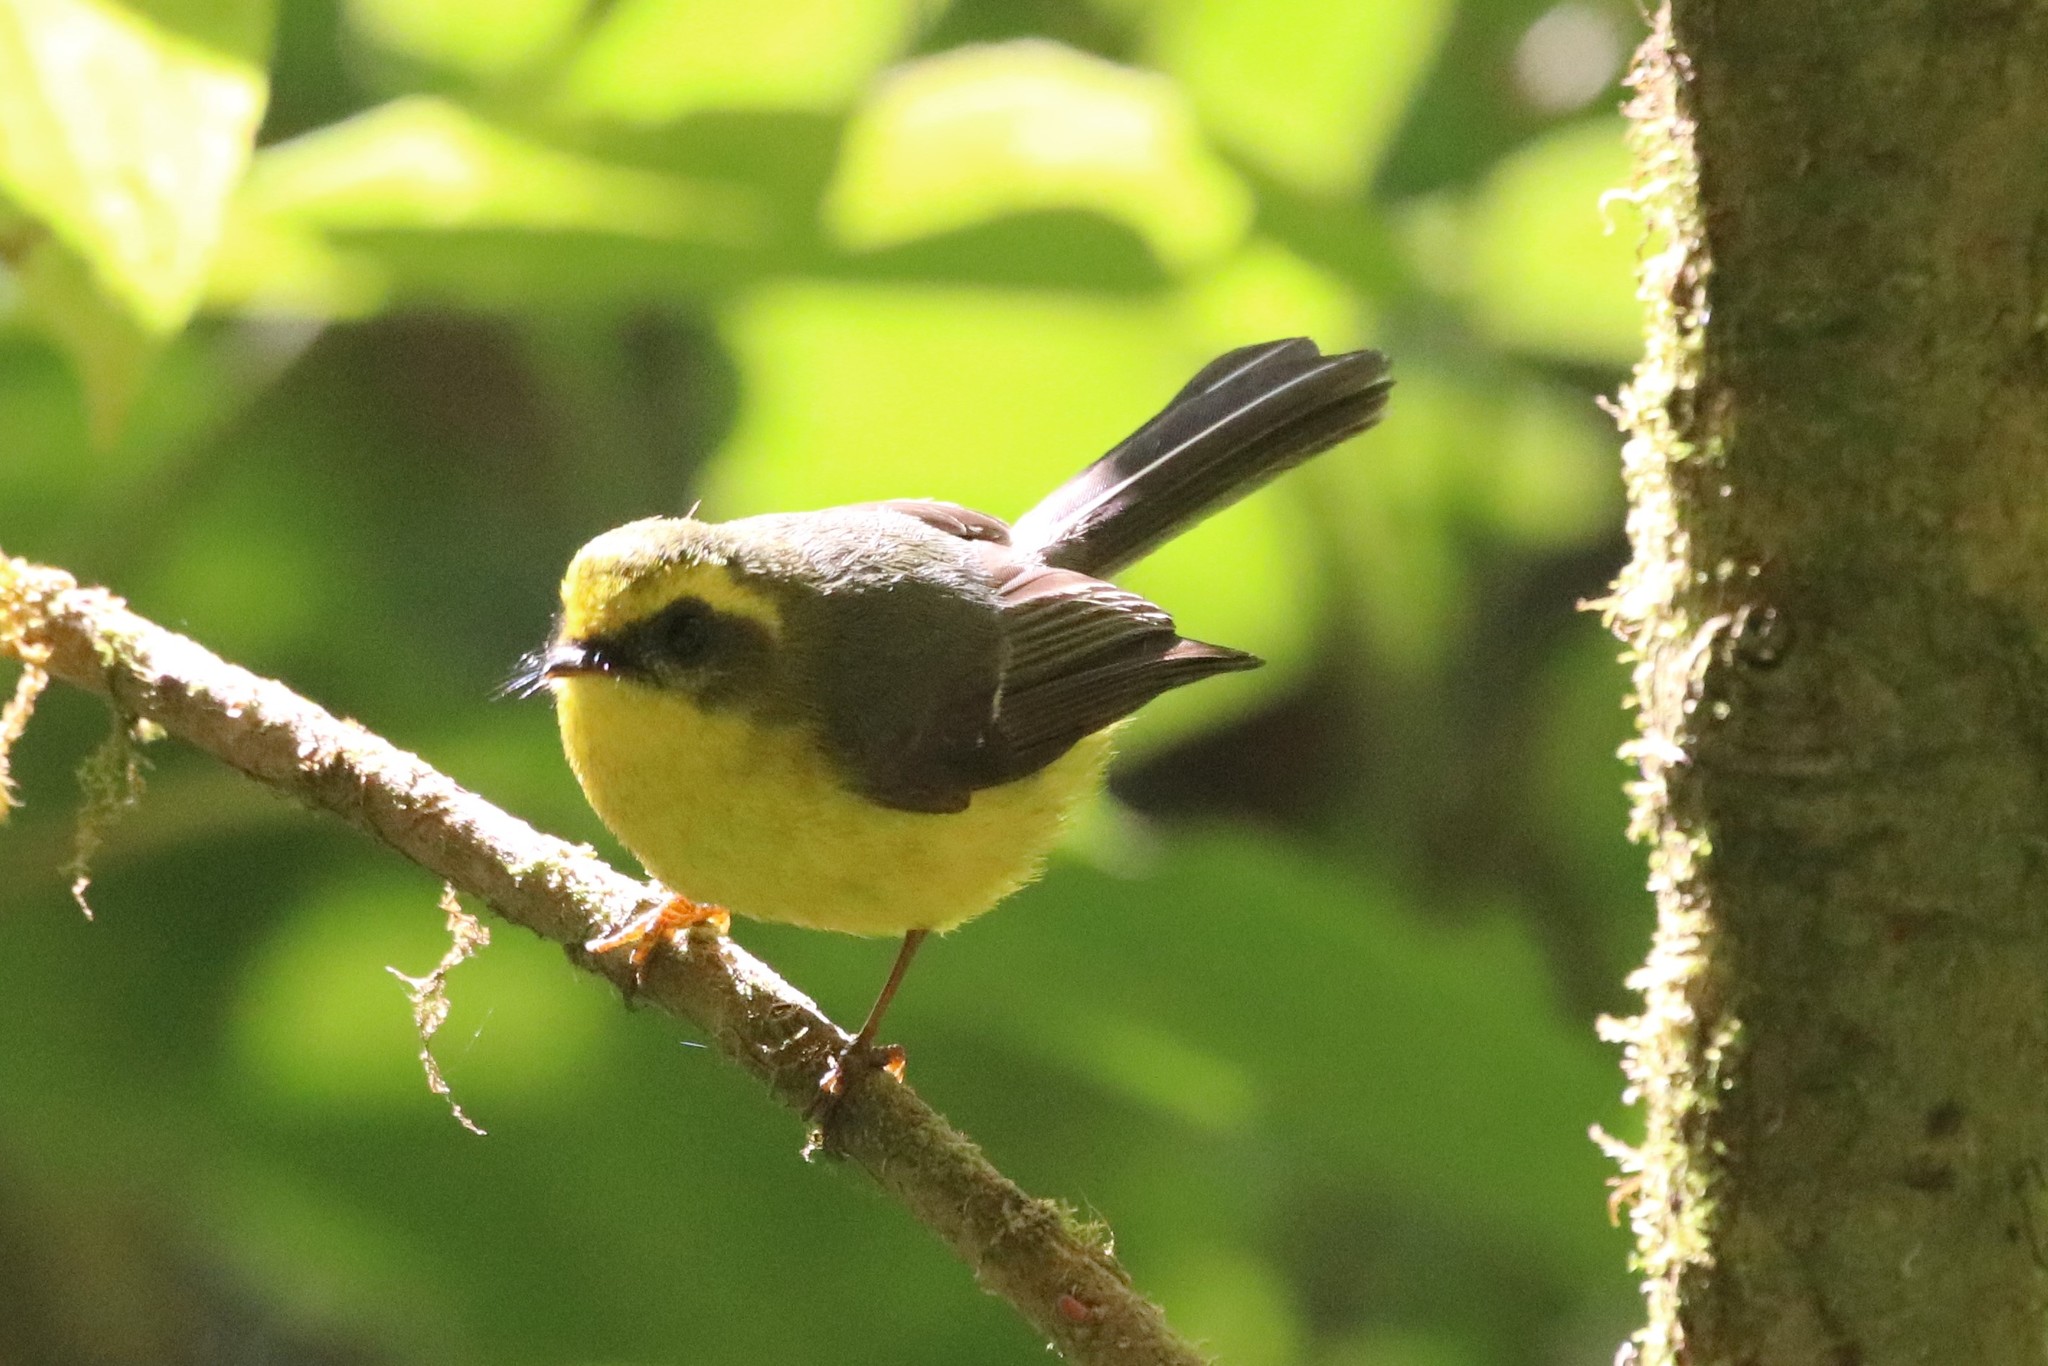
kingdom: Animalia
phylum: Chordata
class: Aves
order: Passeriformes
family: Stenostiridae
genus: Chelidorhynx
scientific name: Chelidorhynx hypoxantha
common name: Yellow-bellied fantail
